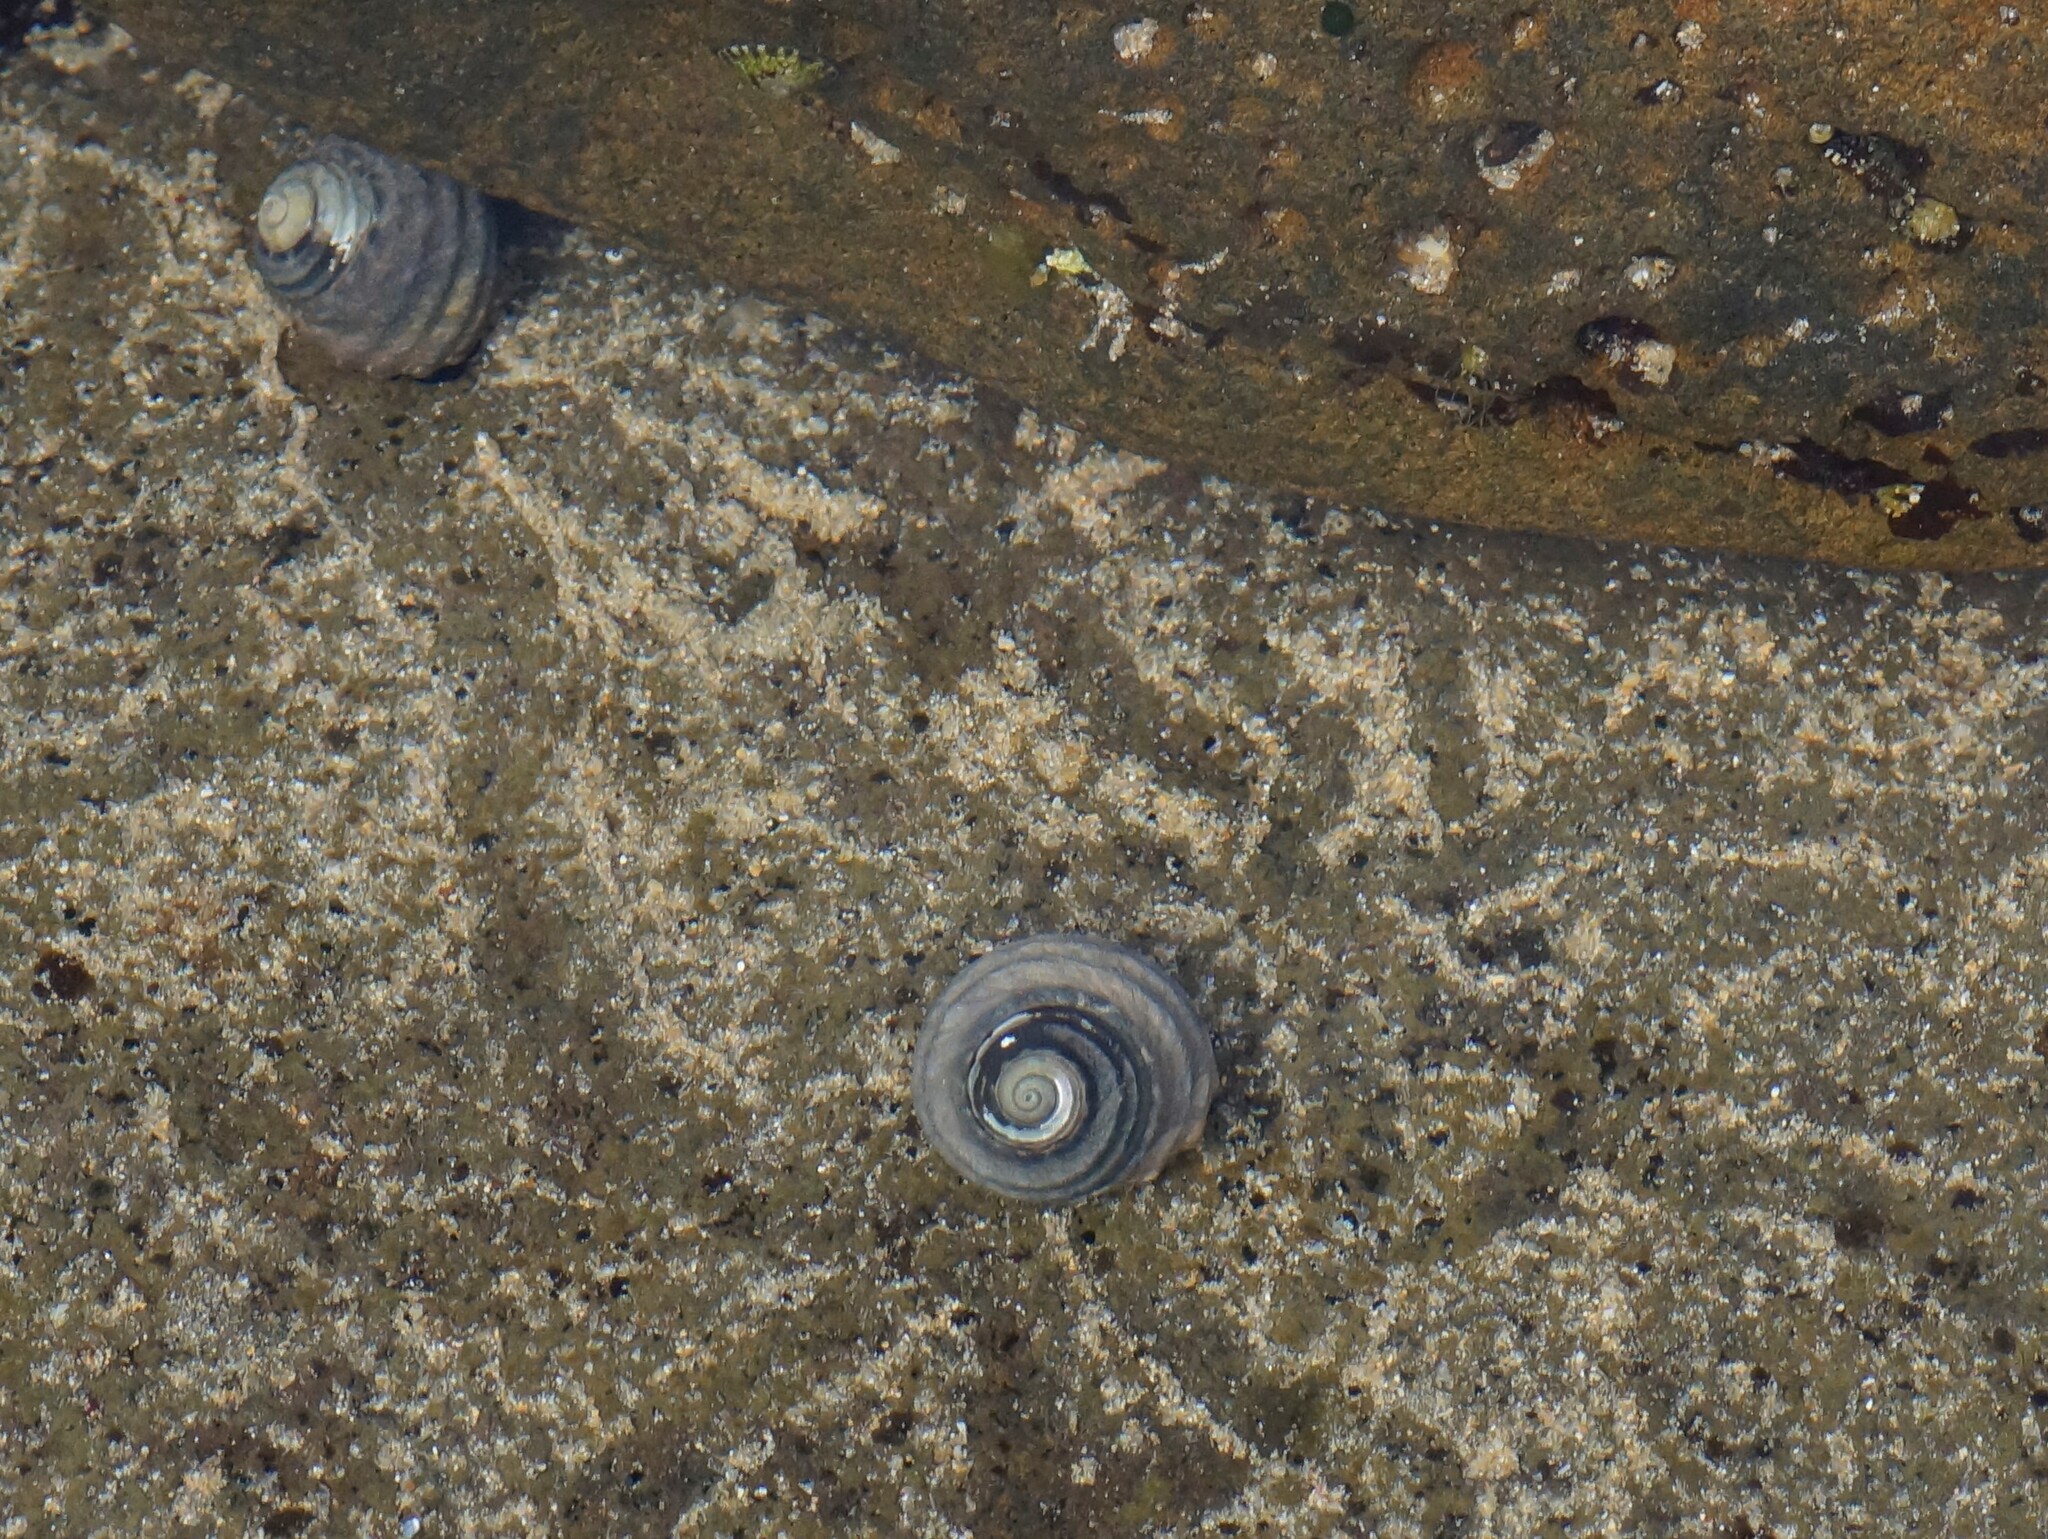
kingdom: Animalia
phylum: Mollusca
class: Gastropoda
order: Trochida
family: Trochidae
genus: Austrocochlea
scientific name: Austrocochlea constricta
